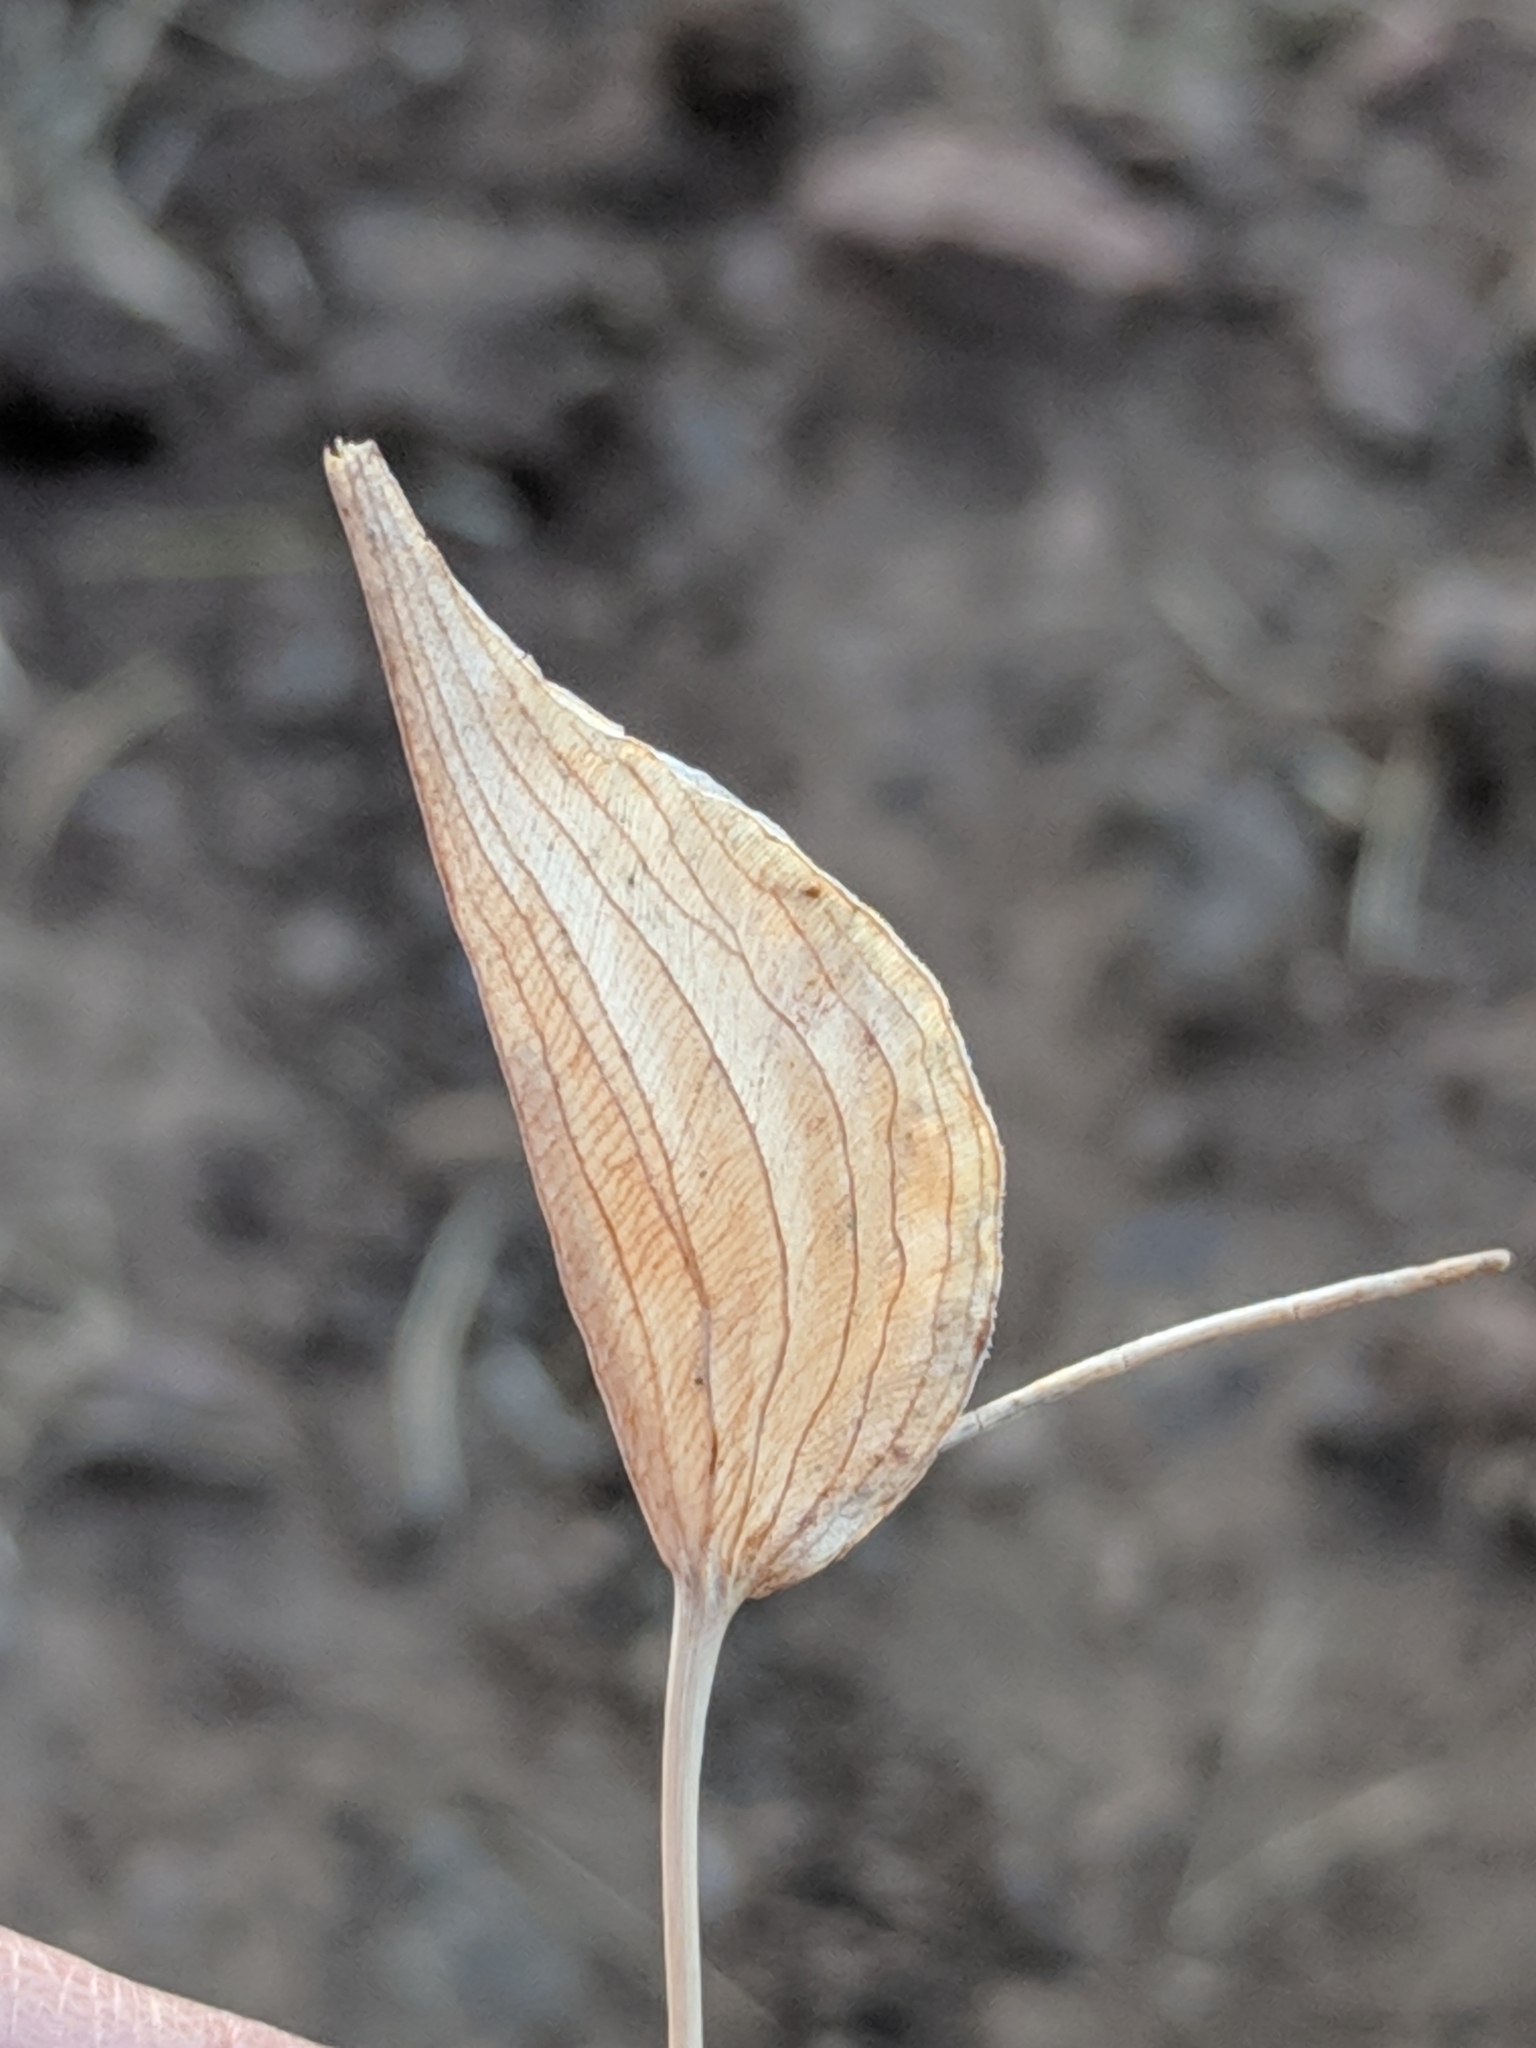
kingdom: Plantae
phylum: Tracheophyta
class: Liliopsida
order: Commelinales
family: Commelinaceae
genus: Commelina
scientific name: Commelina dianthifolia
